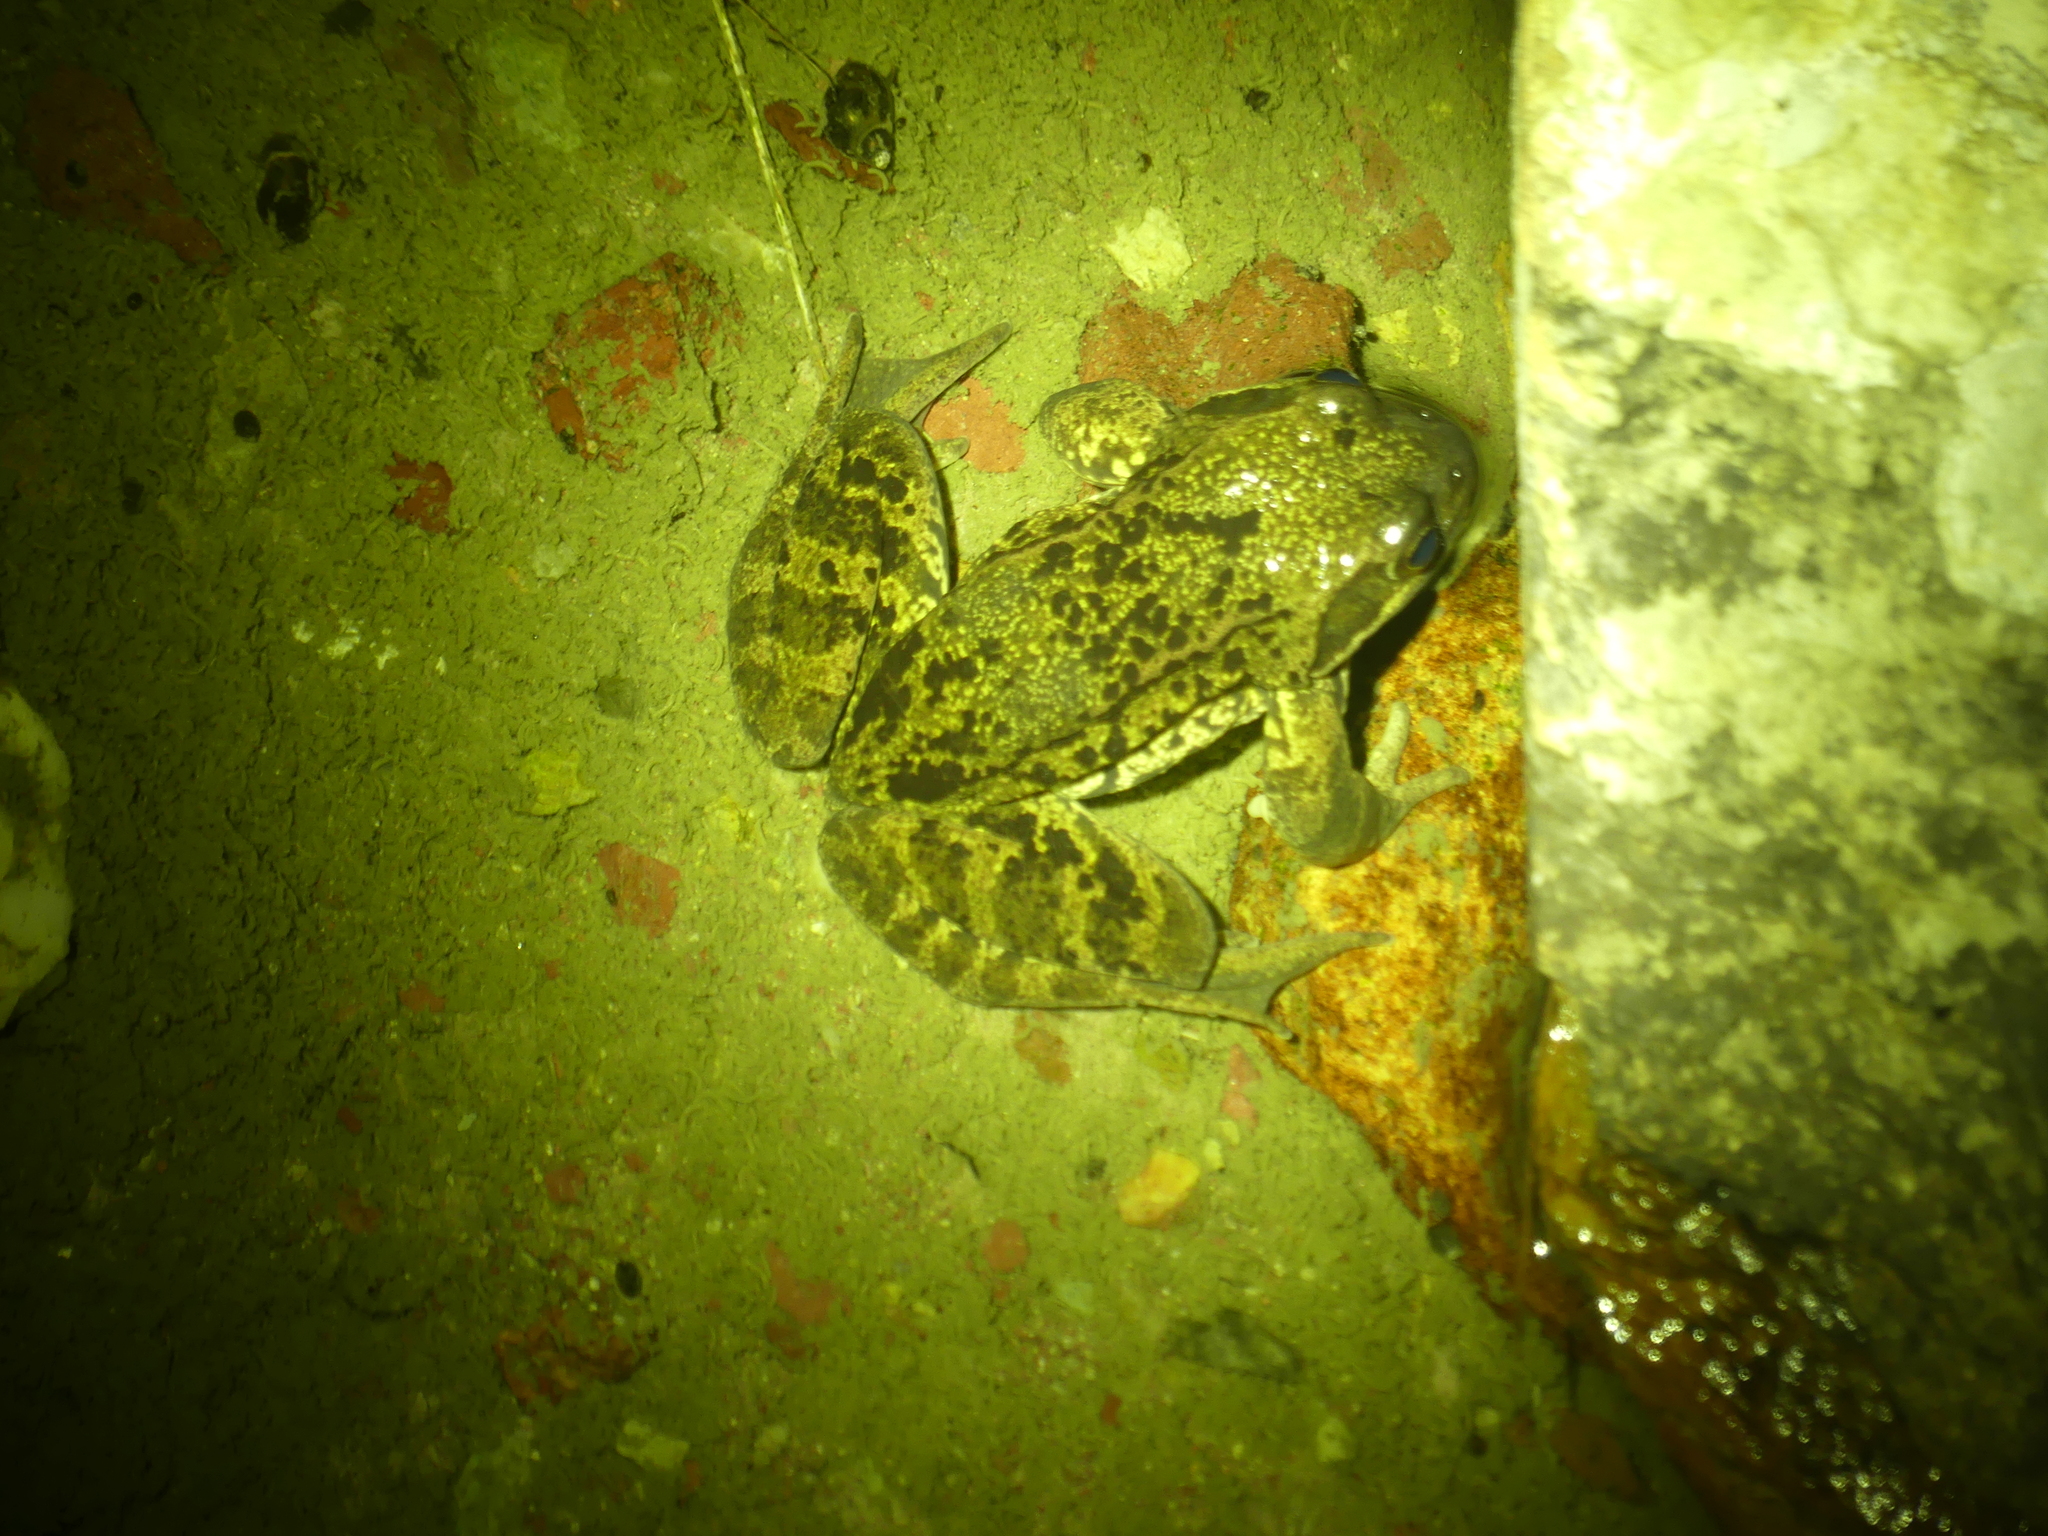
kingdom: Animalia
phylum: Chordata
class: Amphibia
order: Anura
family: Ranidae
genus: Rana
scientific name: Rana temporaria
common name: Common frog
